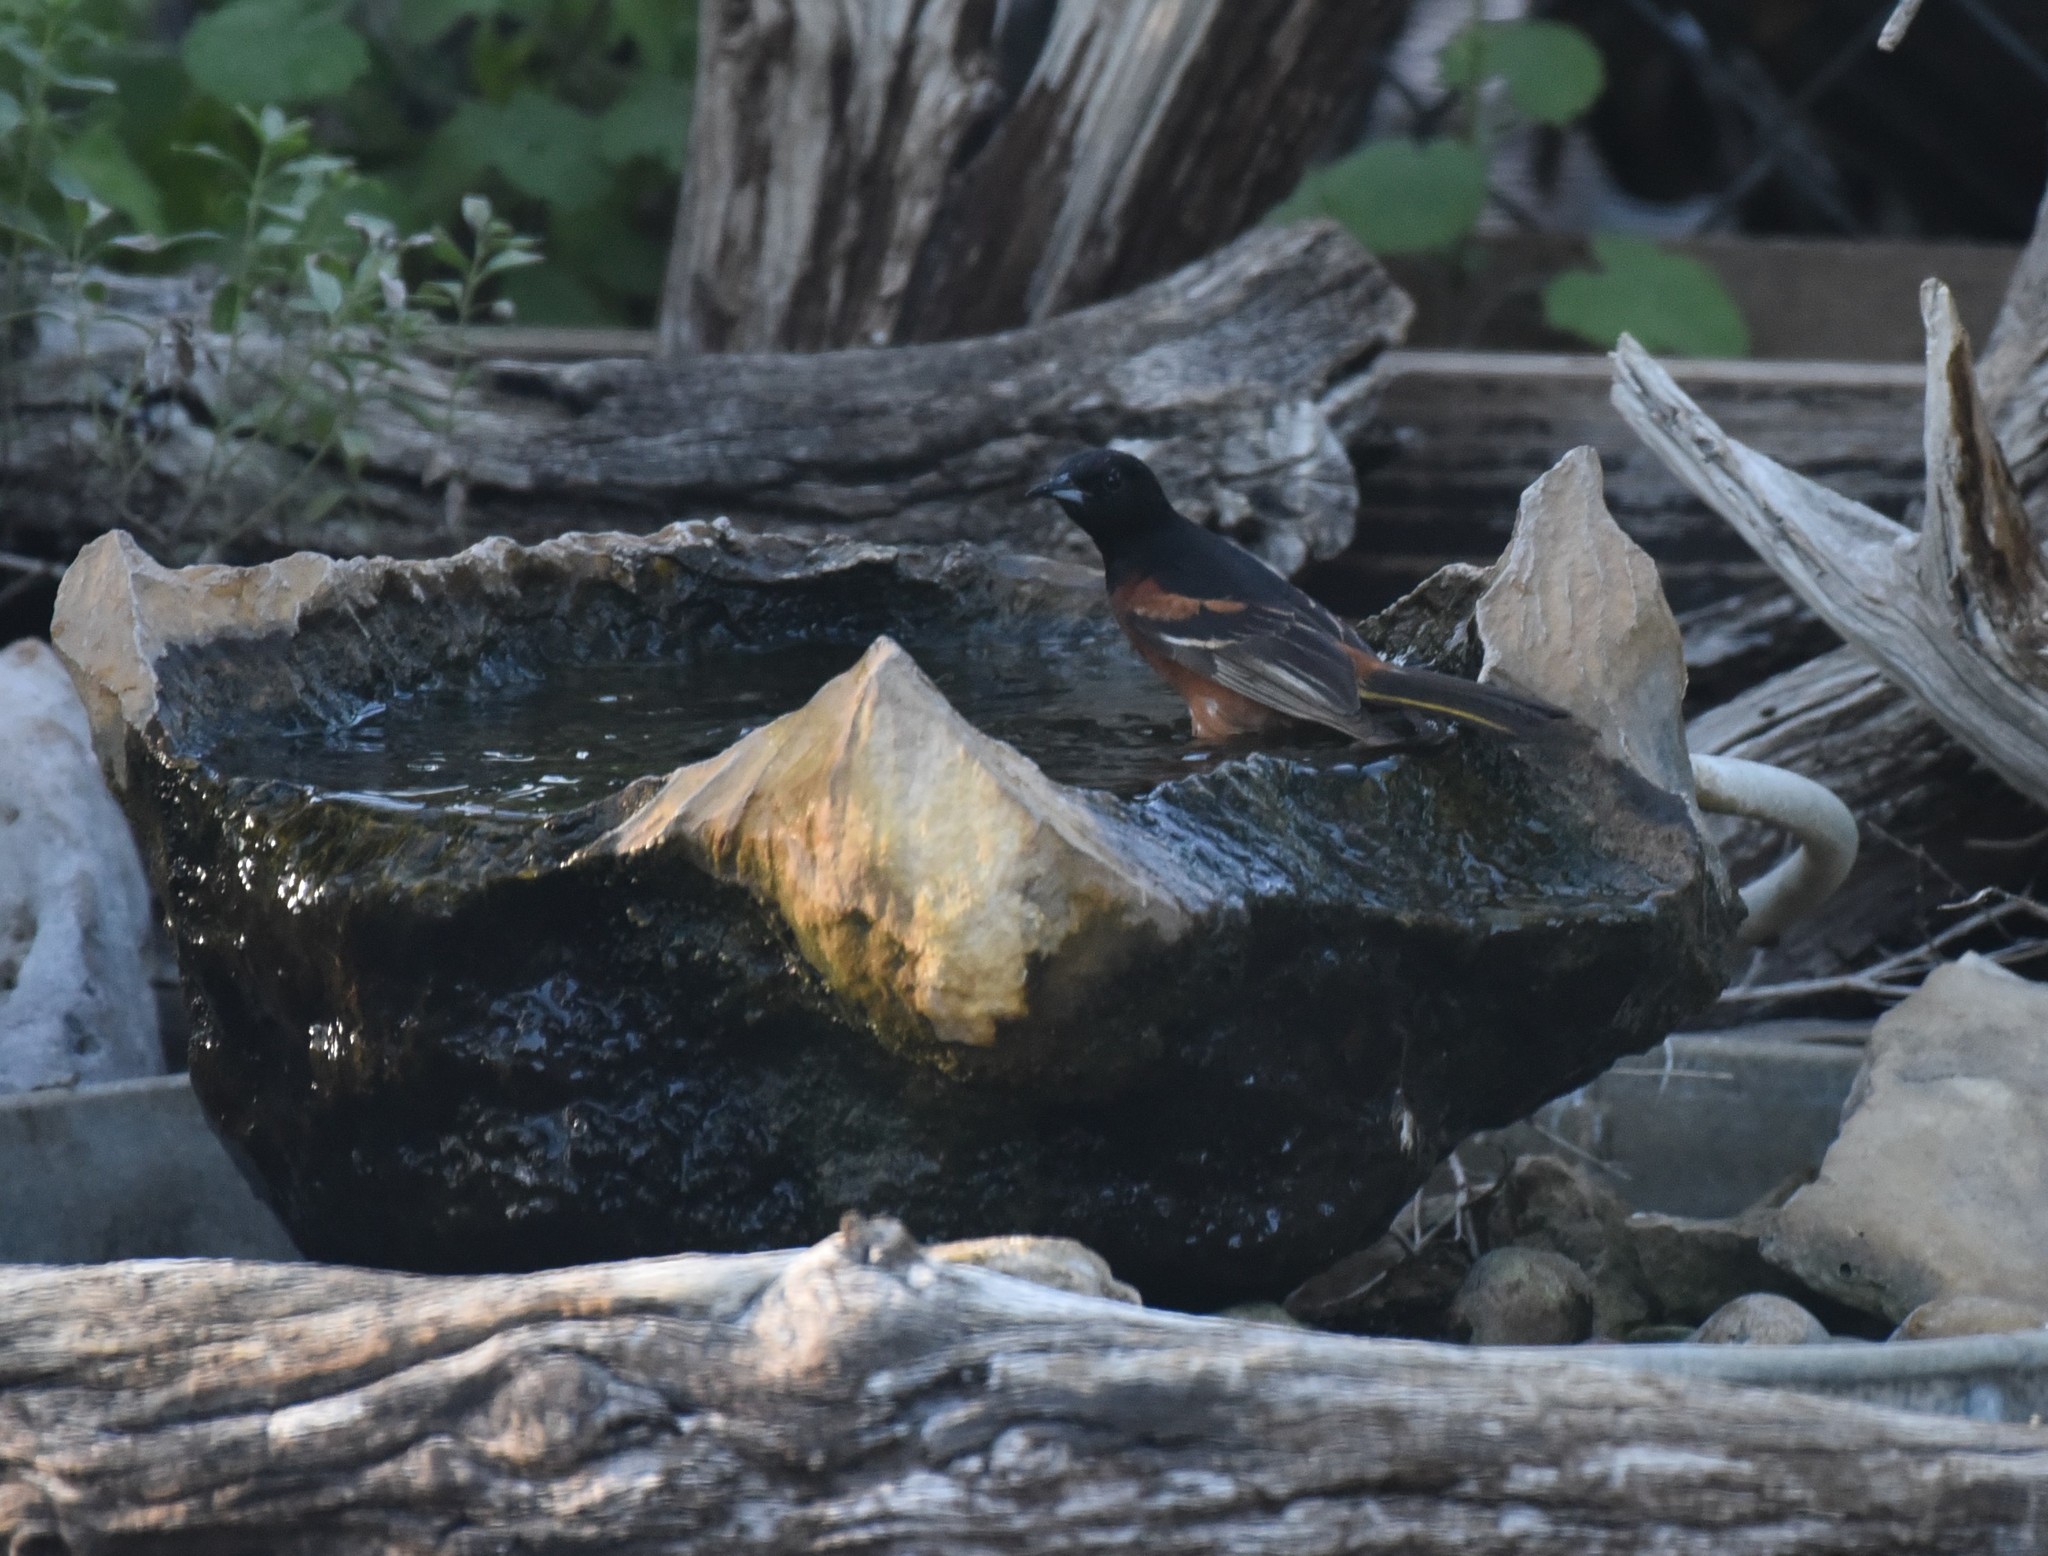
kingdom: Animalia
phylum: Chordata
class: Aves
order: Passeriformes
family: Icteridae
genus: Icterus
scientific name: Icterus spurius
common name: Orchard oriole
